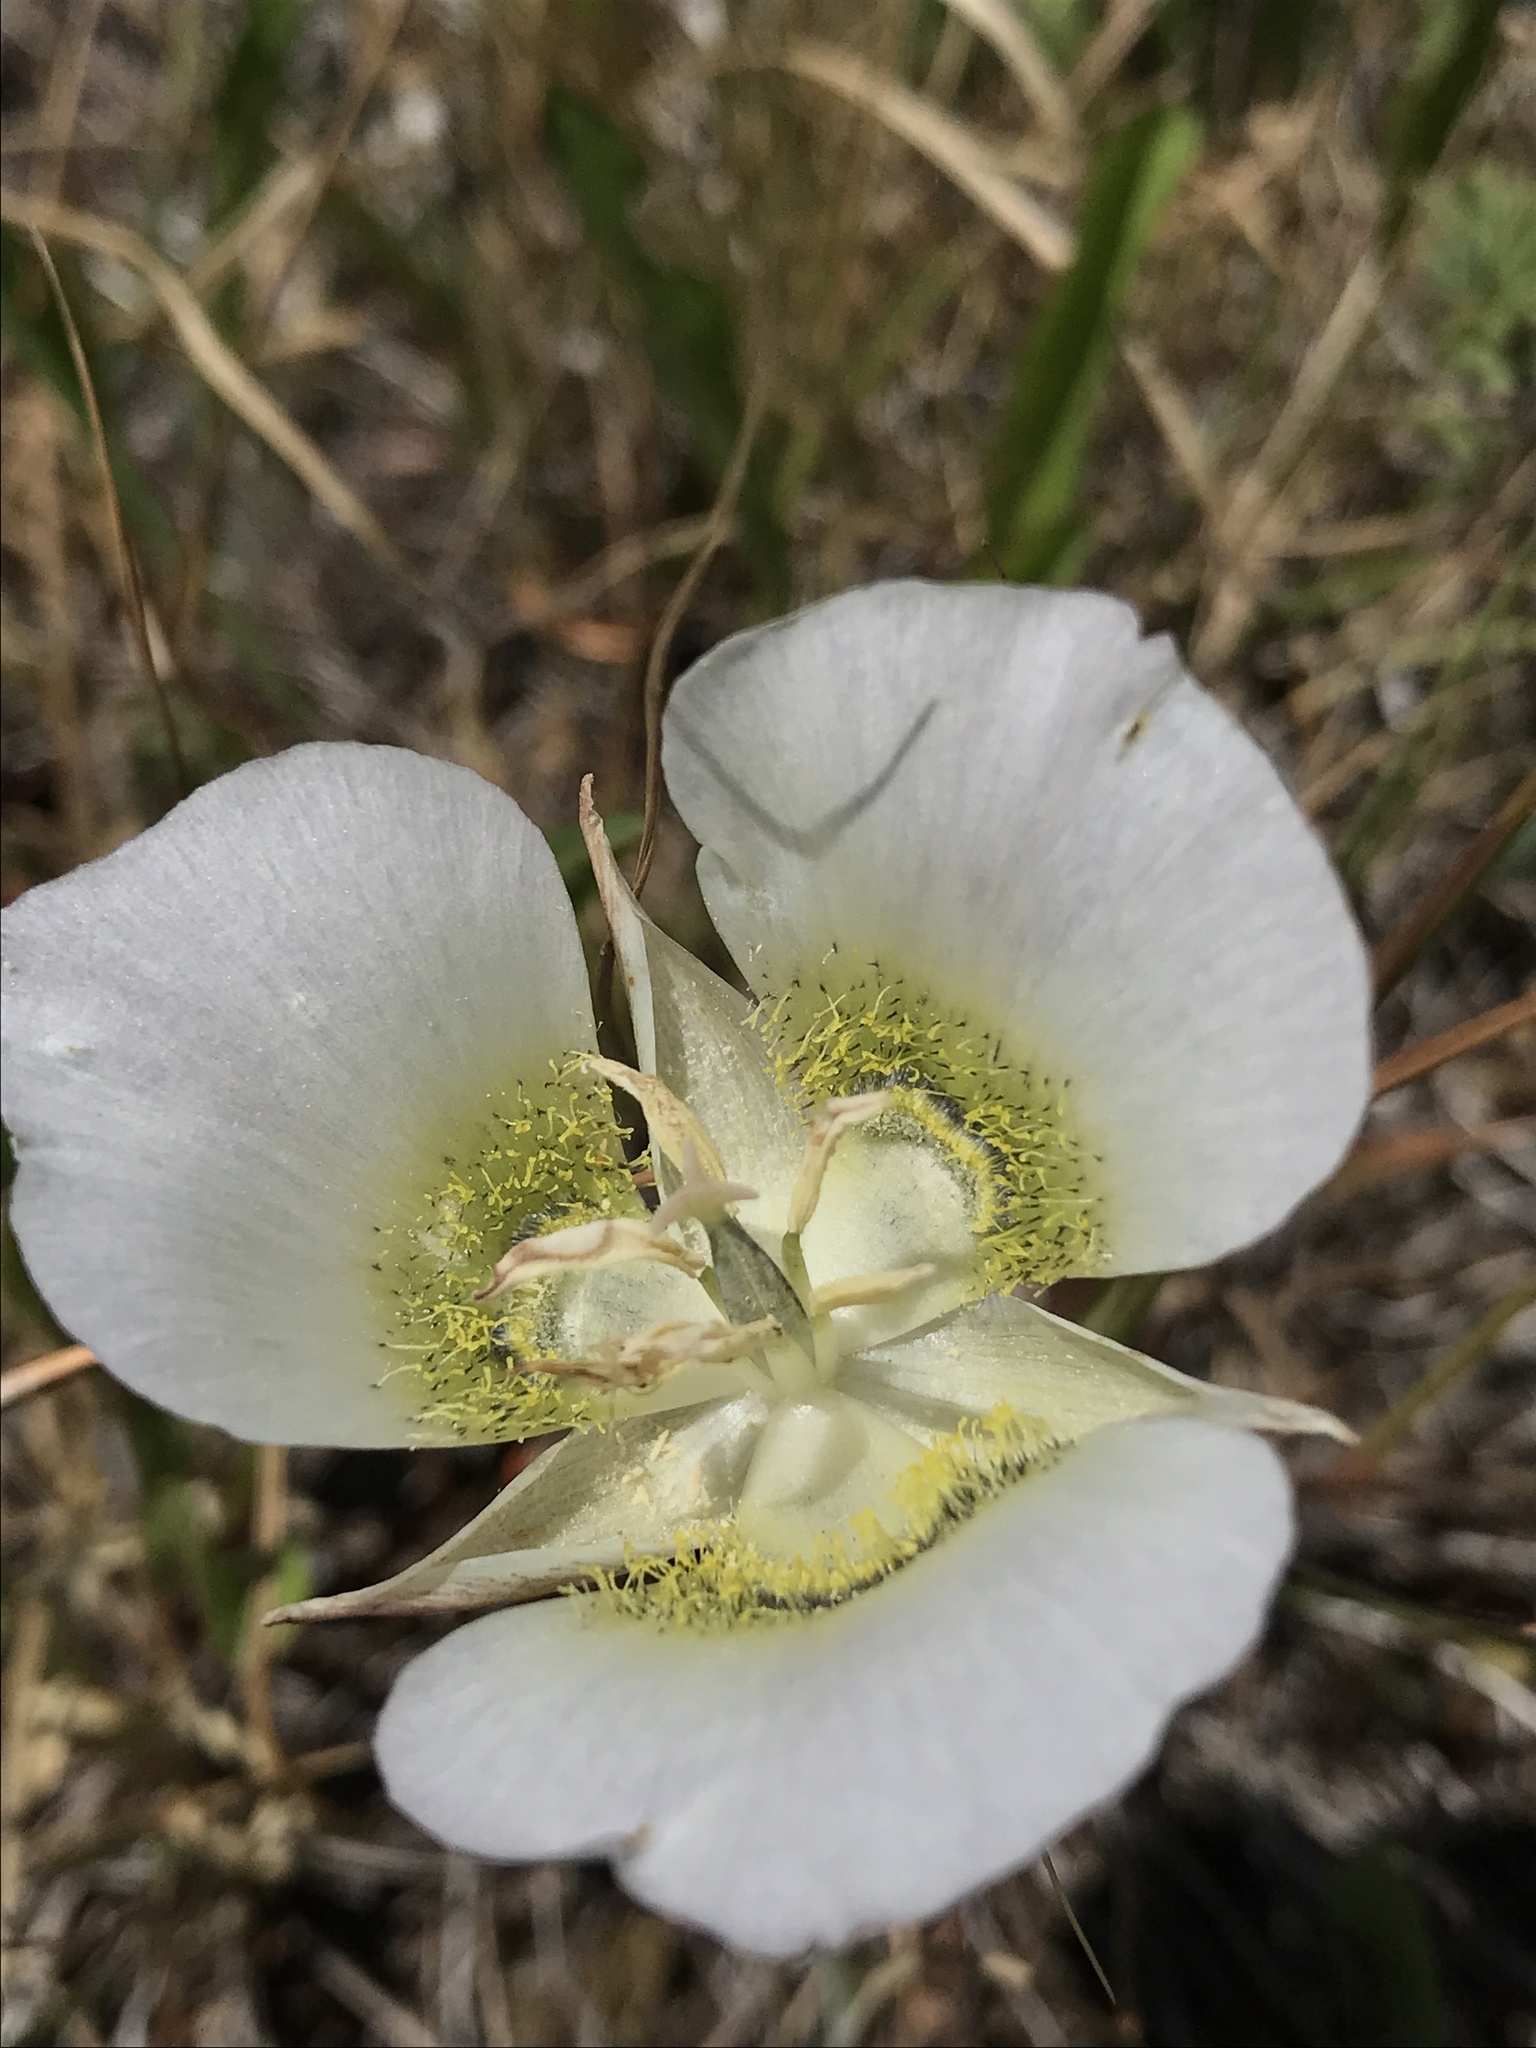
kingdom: Plantae
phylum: Tracheophyta
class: Liliopsida
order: Liliales
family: Liliaceae
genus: Calochortus
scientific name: Calochortus gunnisonii
